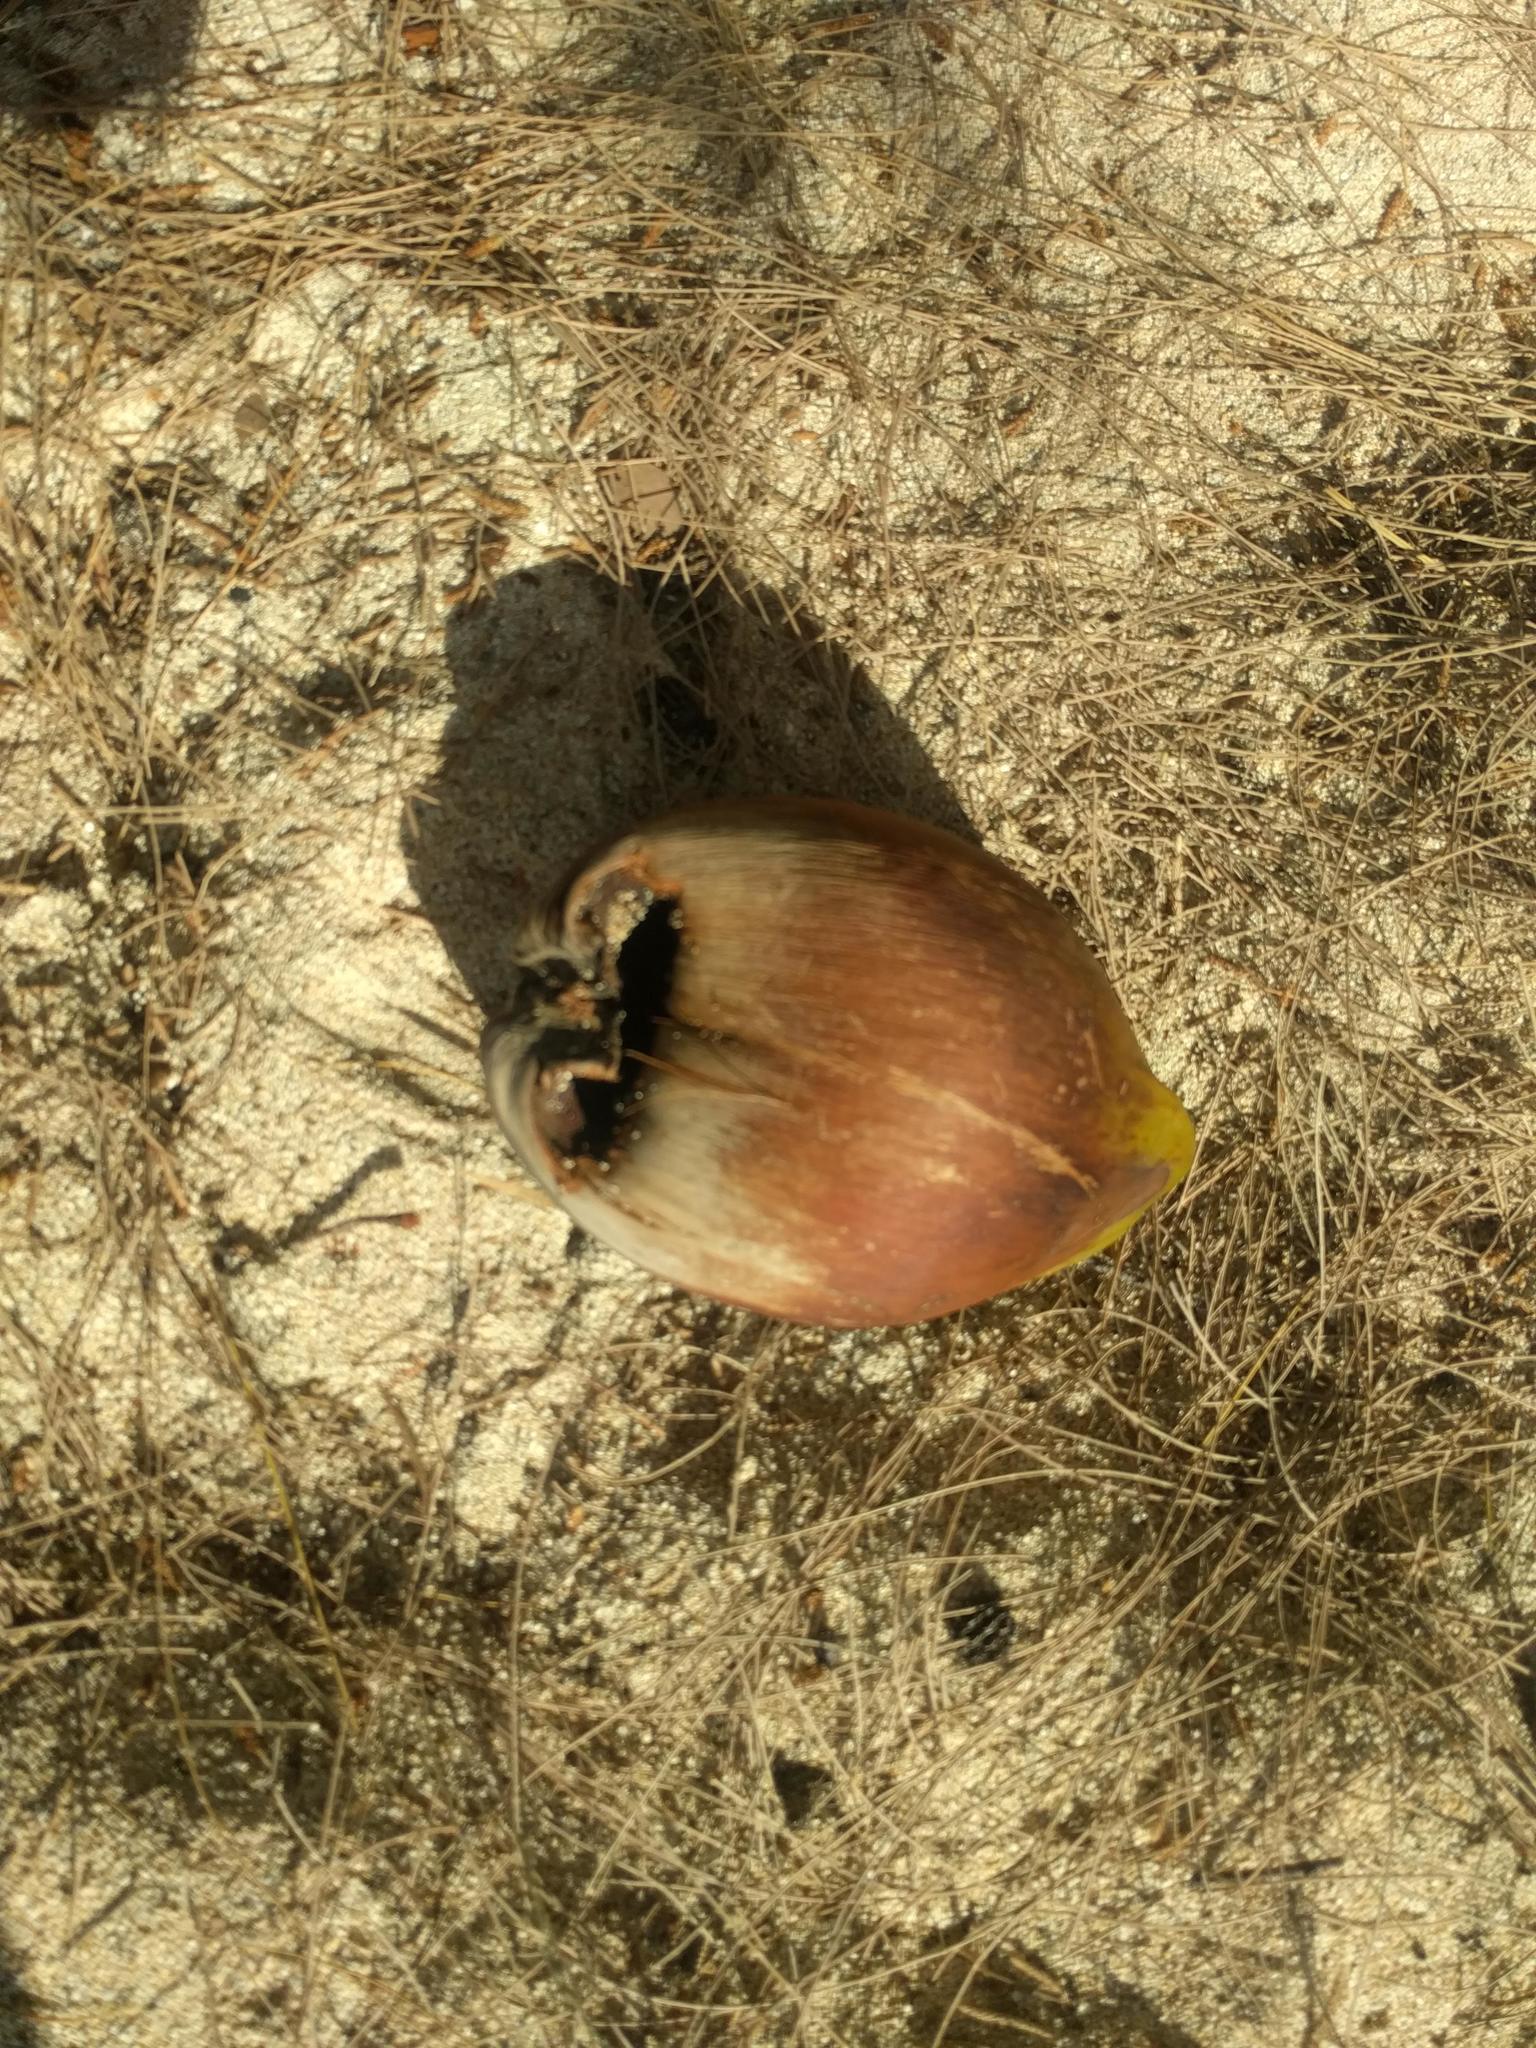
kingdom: Plantae
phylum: Tracheophyta
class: Liliopsida
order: Arecales
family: Arecaceae
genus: Cocos
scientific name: Cocos nucifera
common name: Coconut palm
